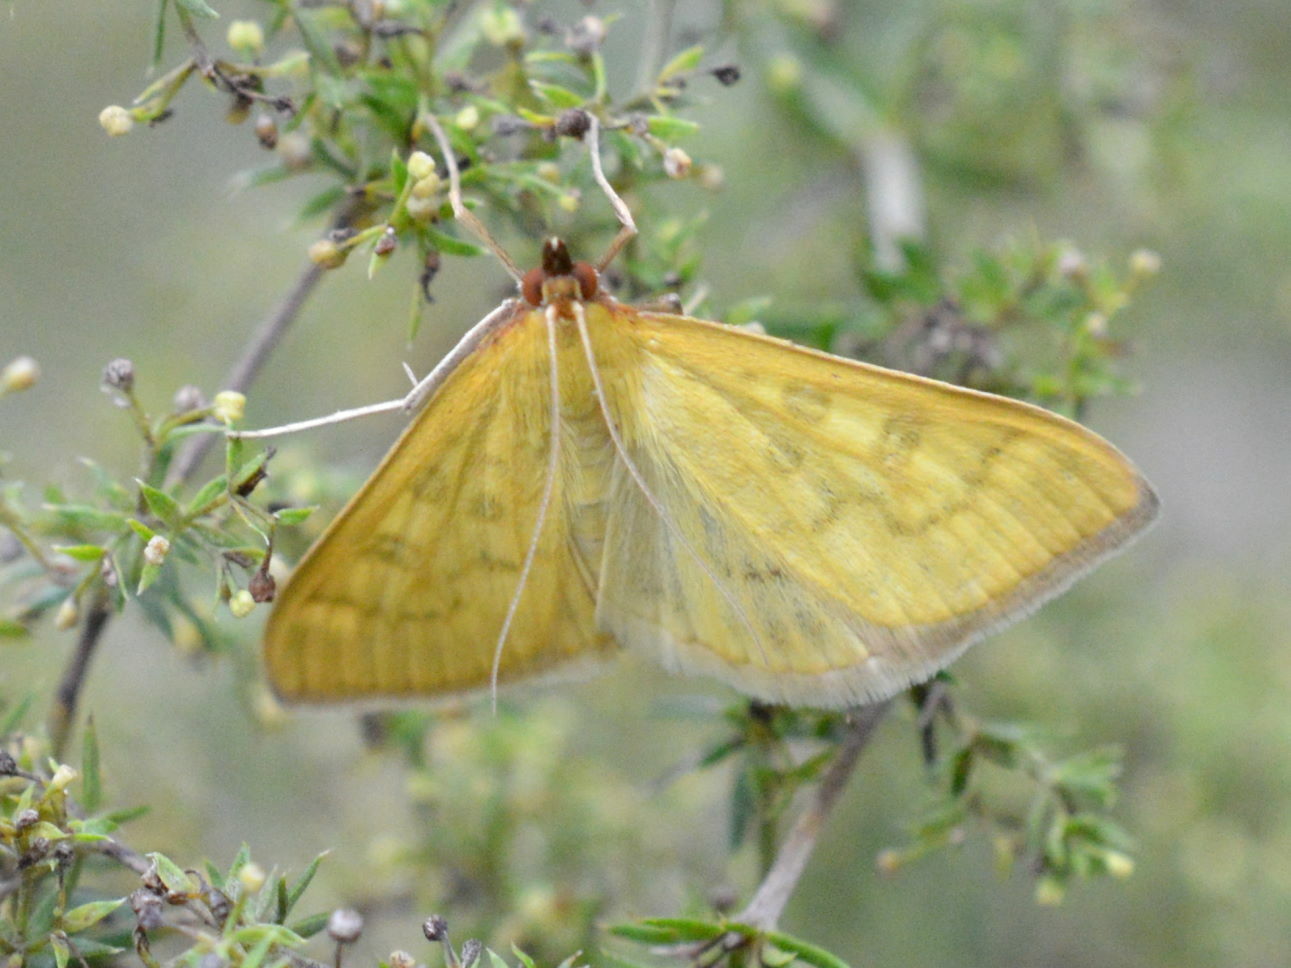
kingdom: Animalia
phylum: Arthropoda
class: Insecta
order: Lepidoptera
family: Crambidae
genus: Mecyna
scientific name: Mecyna flavalis
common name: Yellow pearl
